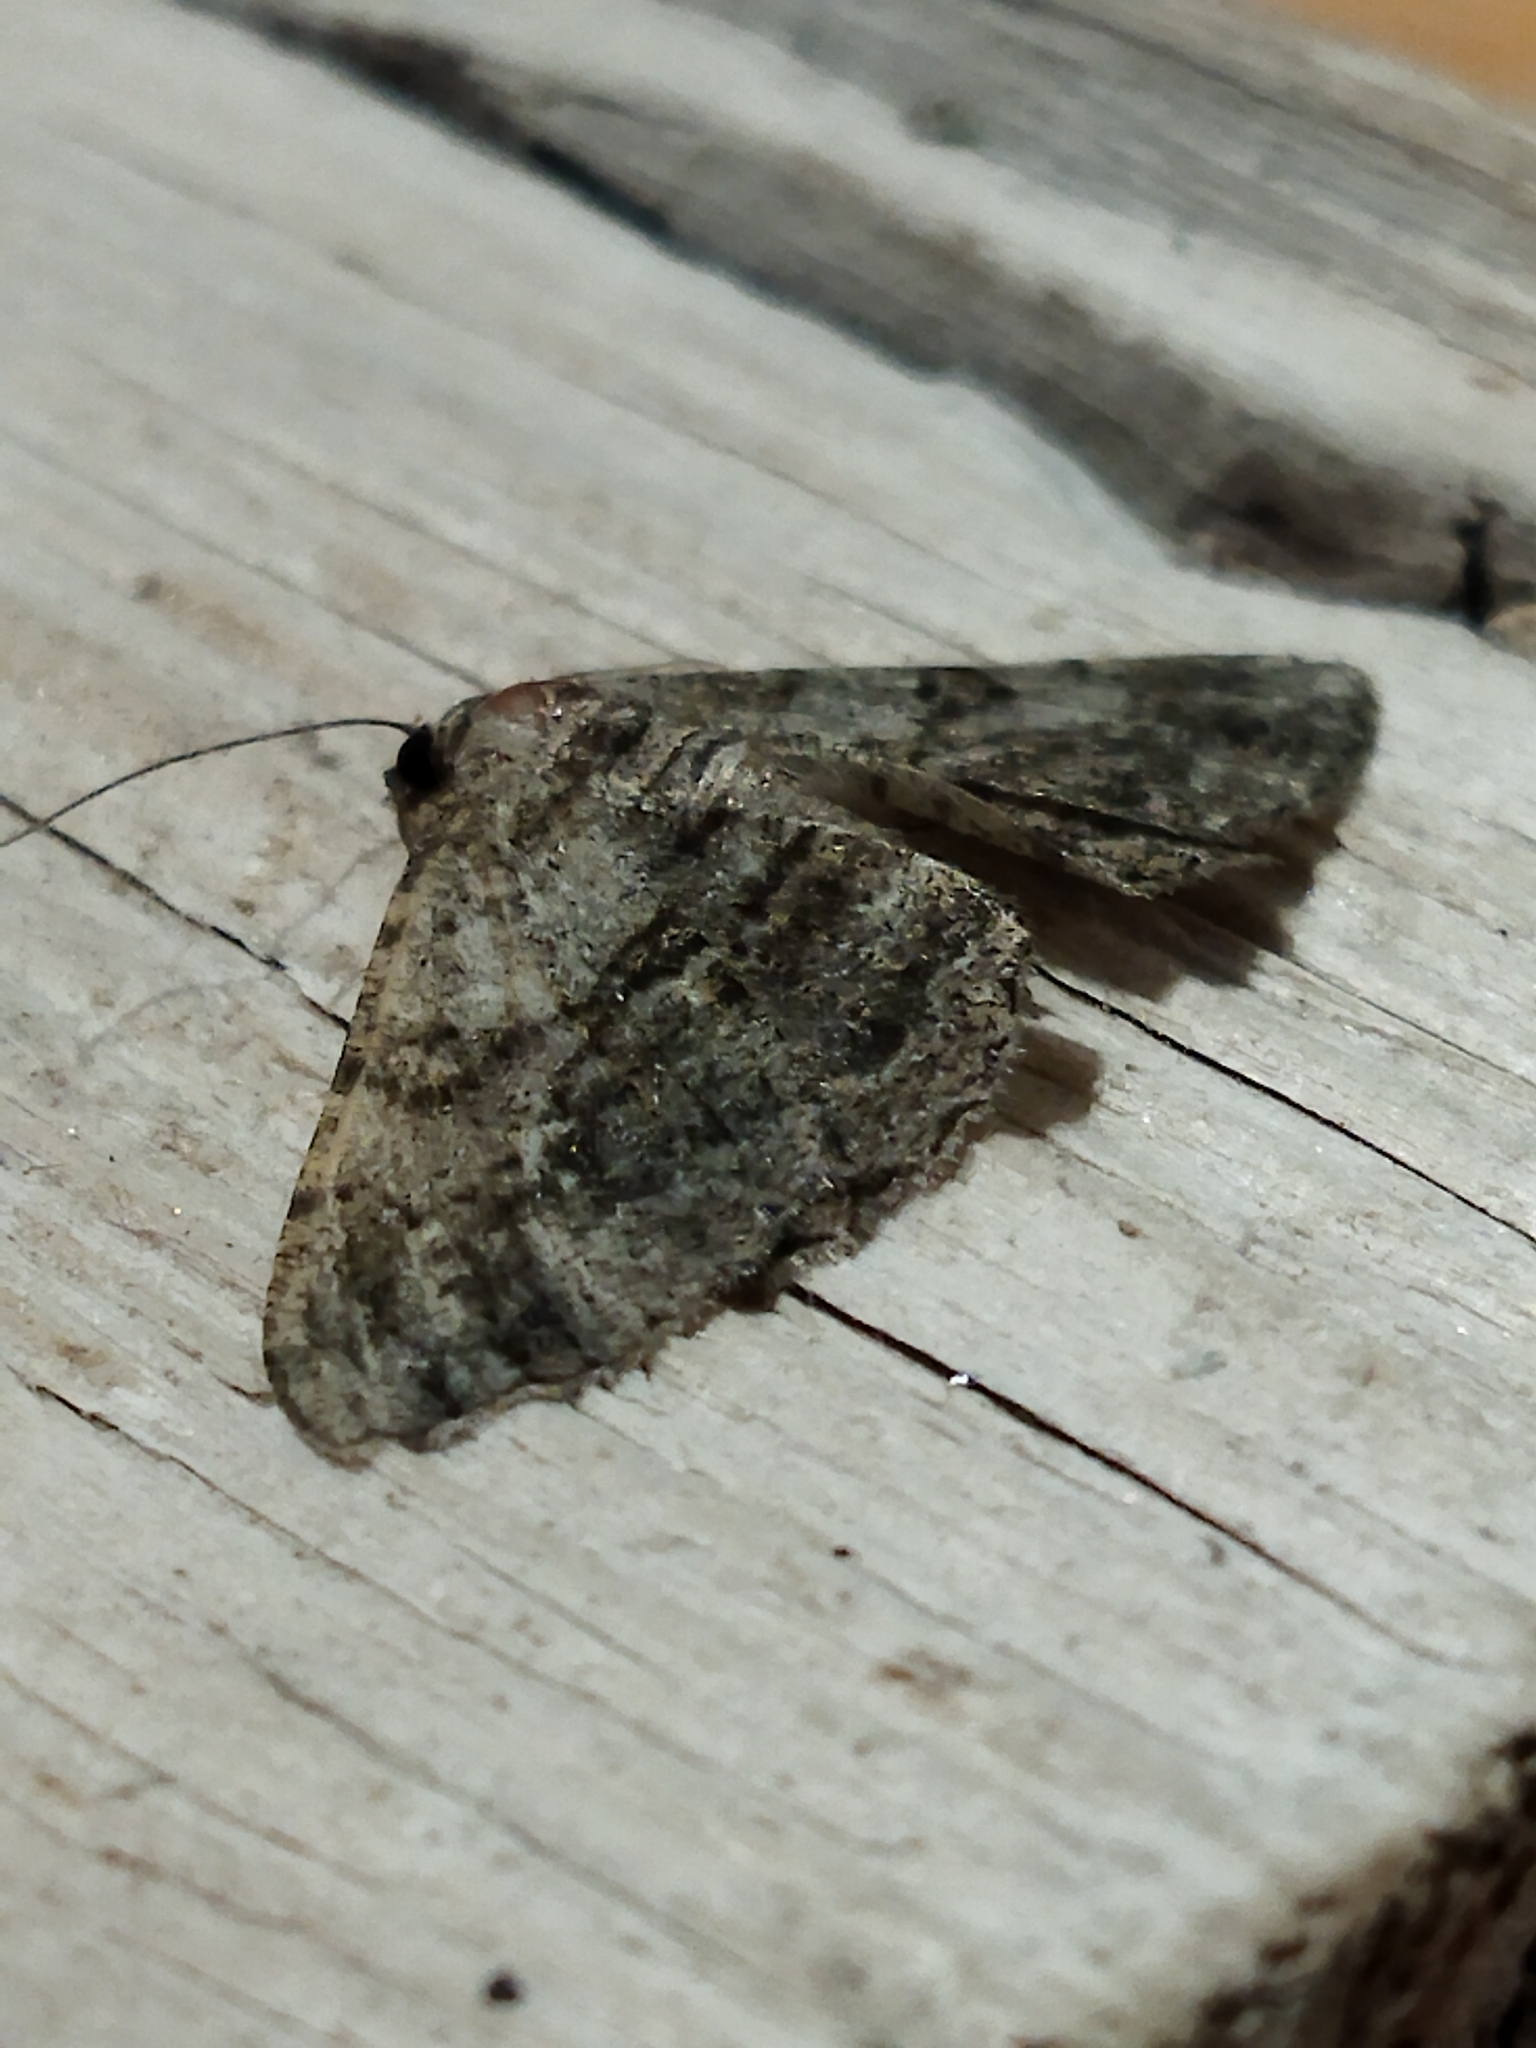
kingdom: Animalia
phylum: Arthropoda
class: Insecta
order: Lepidoptera
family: Geometridae
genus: Peribatodes
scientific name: Peribatodes rhomboidaria
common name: Willow beauty
